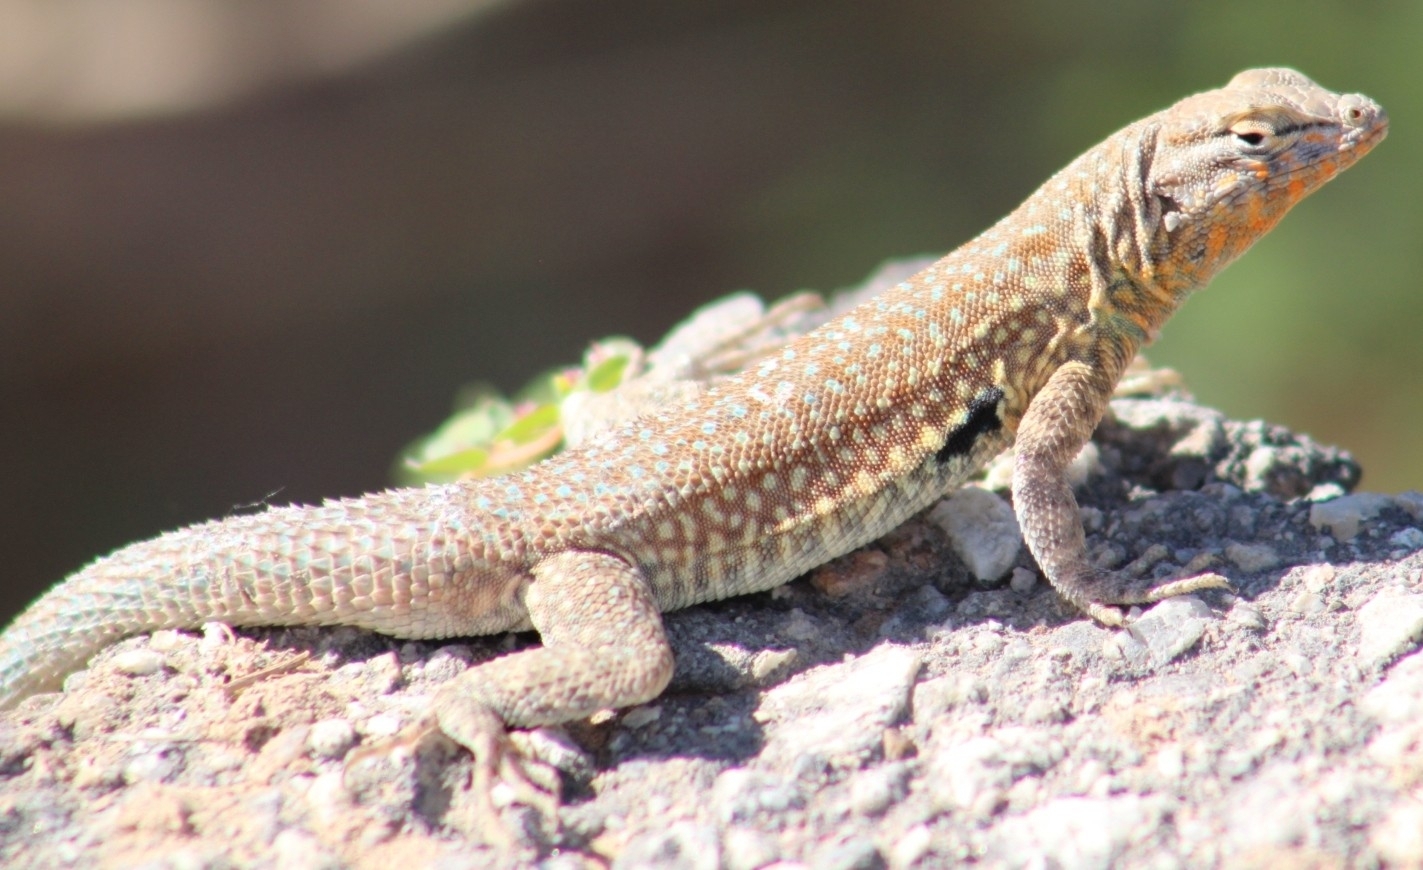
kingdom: Animalia
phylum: Chordata
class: Squamata
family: Phrynosomatidae
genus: Uta
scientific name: Uta stansburiana
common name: Side-blotched lizard
